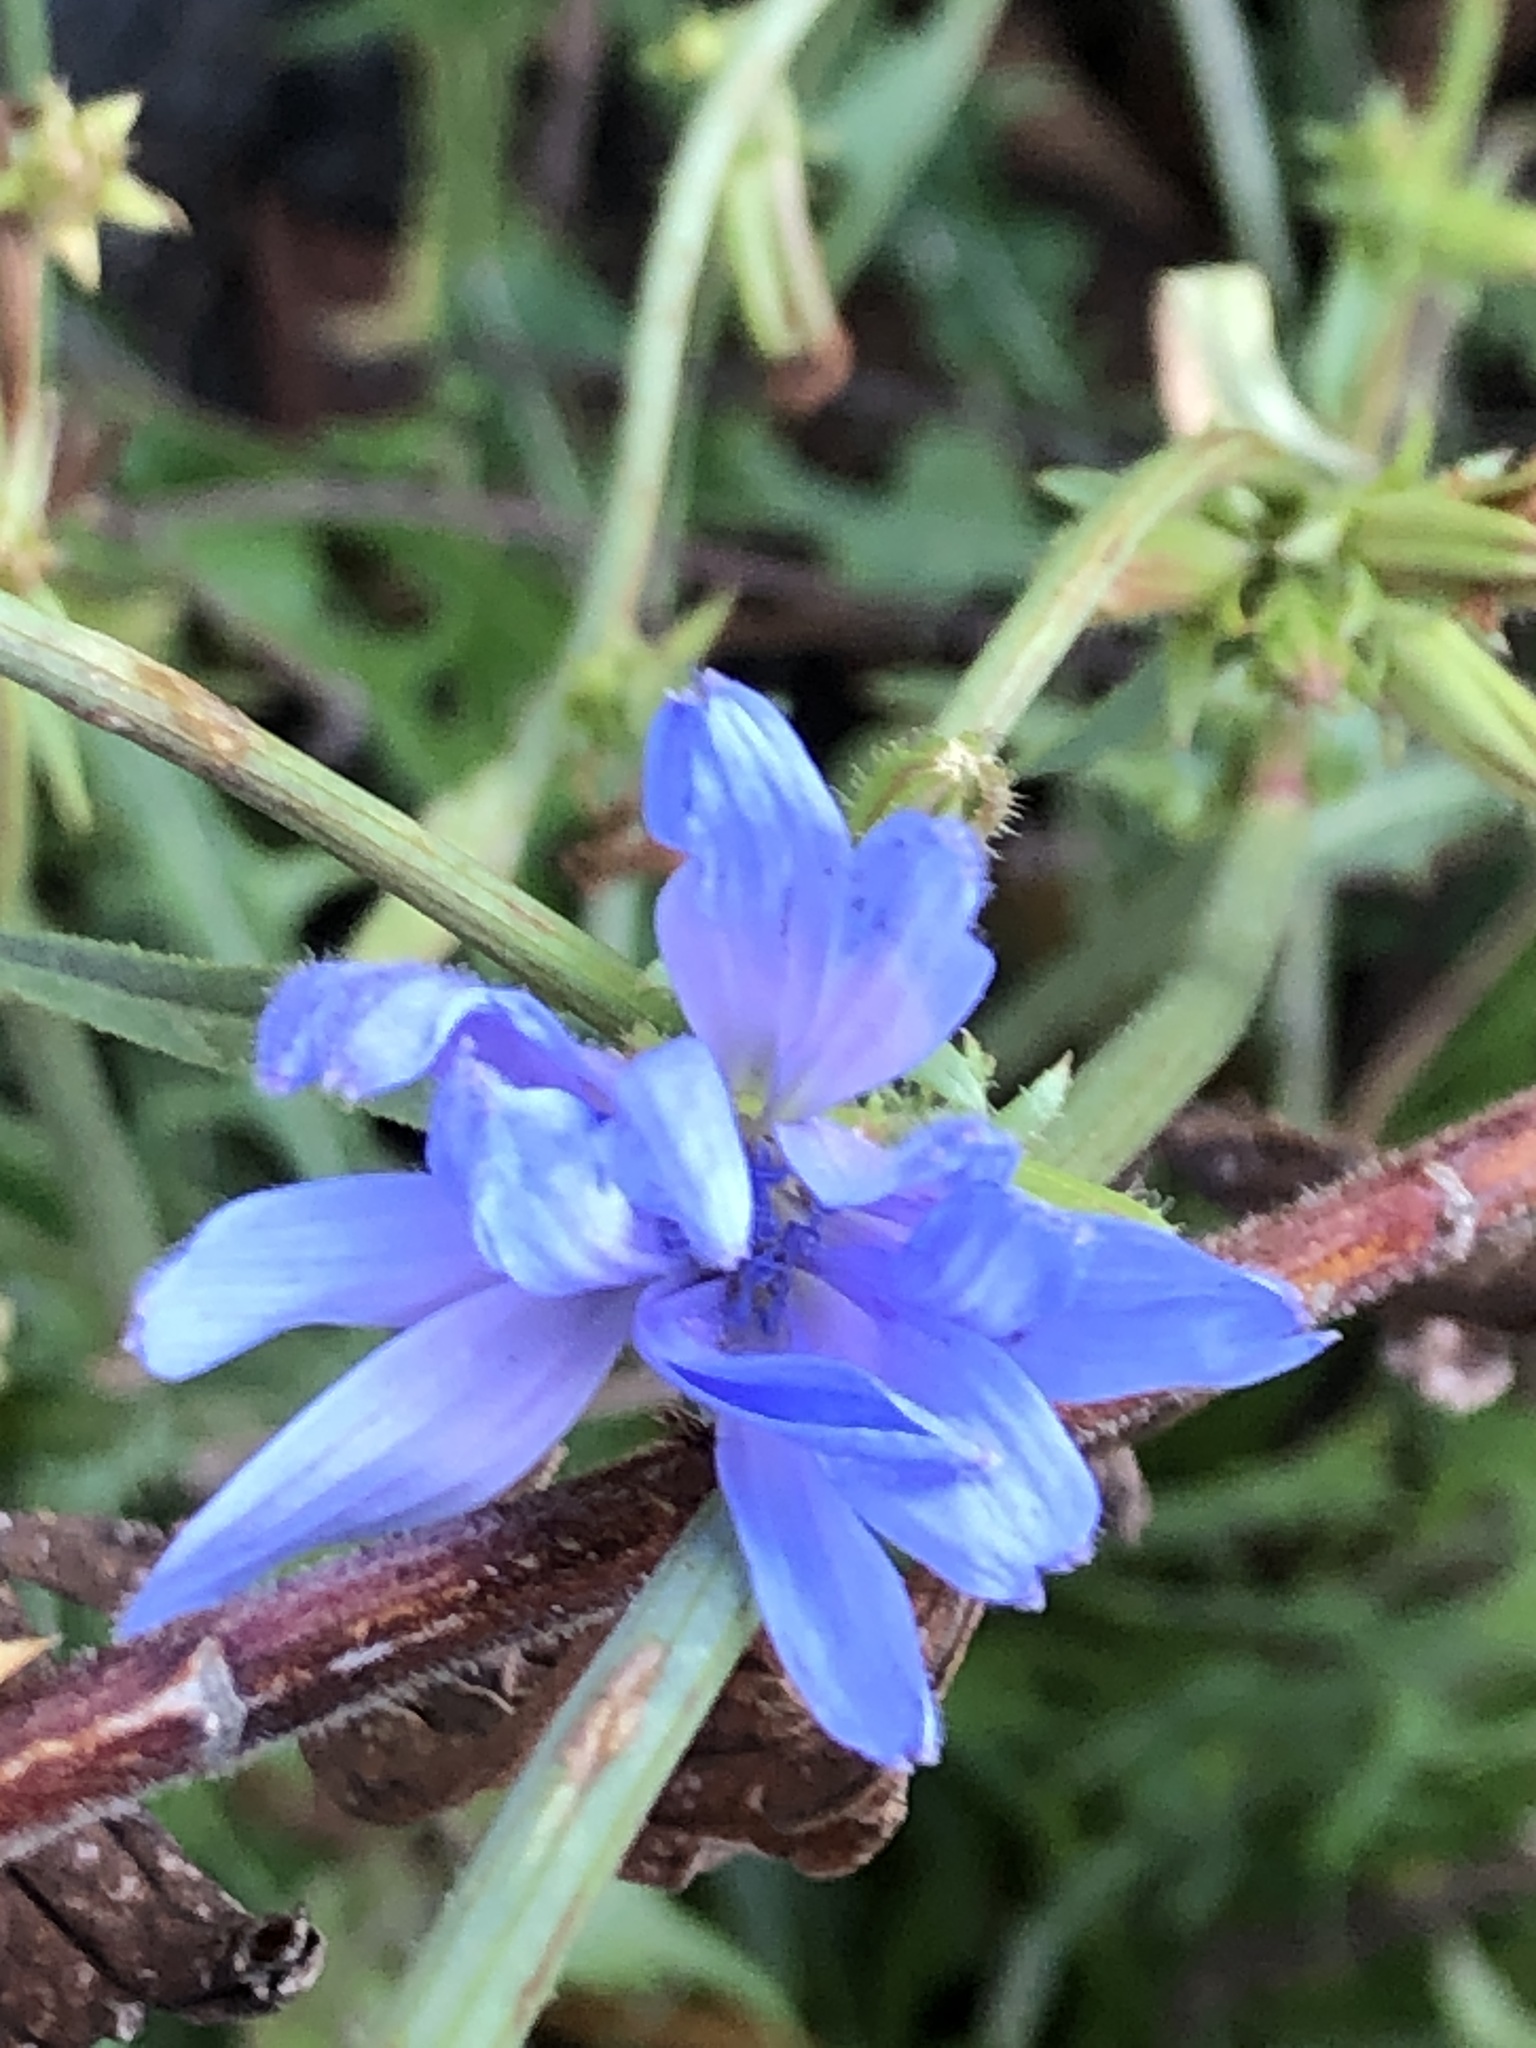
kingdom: Plantae
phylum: Tracheophyta
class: Magnoliopsida
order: Asterales
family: Asteraceae
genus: Cichorium
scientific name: Cichorium intybus
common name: Chicory
